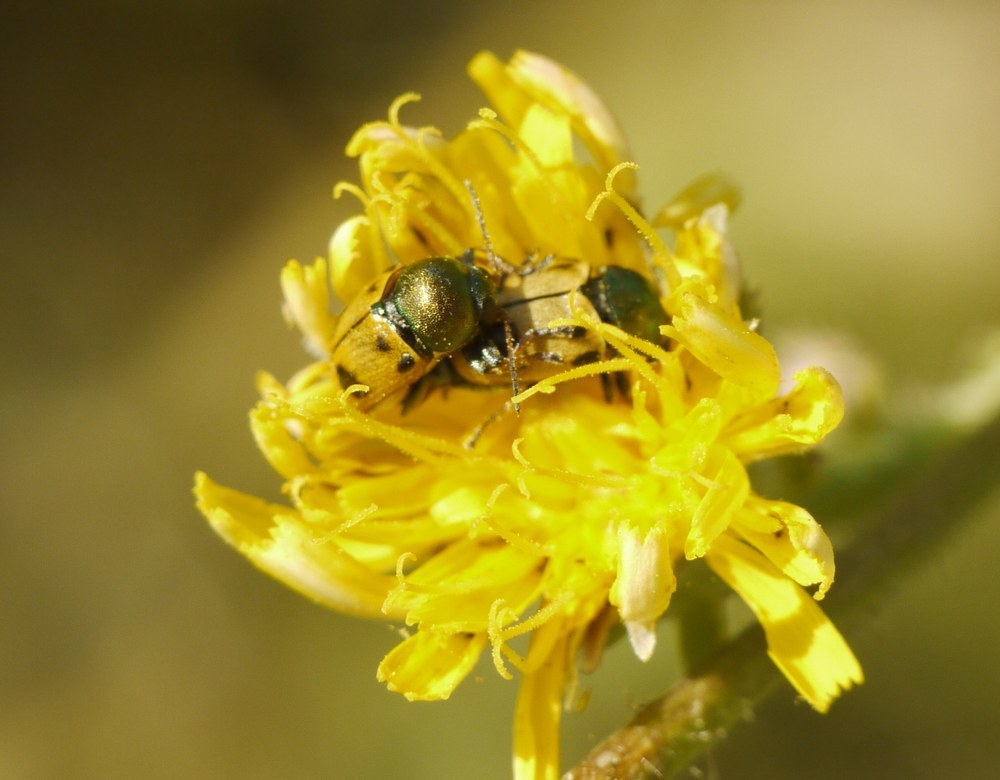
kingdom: Animalia
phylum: Arthropoda
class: Insecta
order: Coleoptera
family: Chrysomelidae
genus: Cryptocephalus
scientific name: Cryptocephalus laetus
